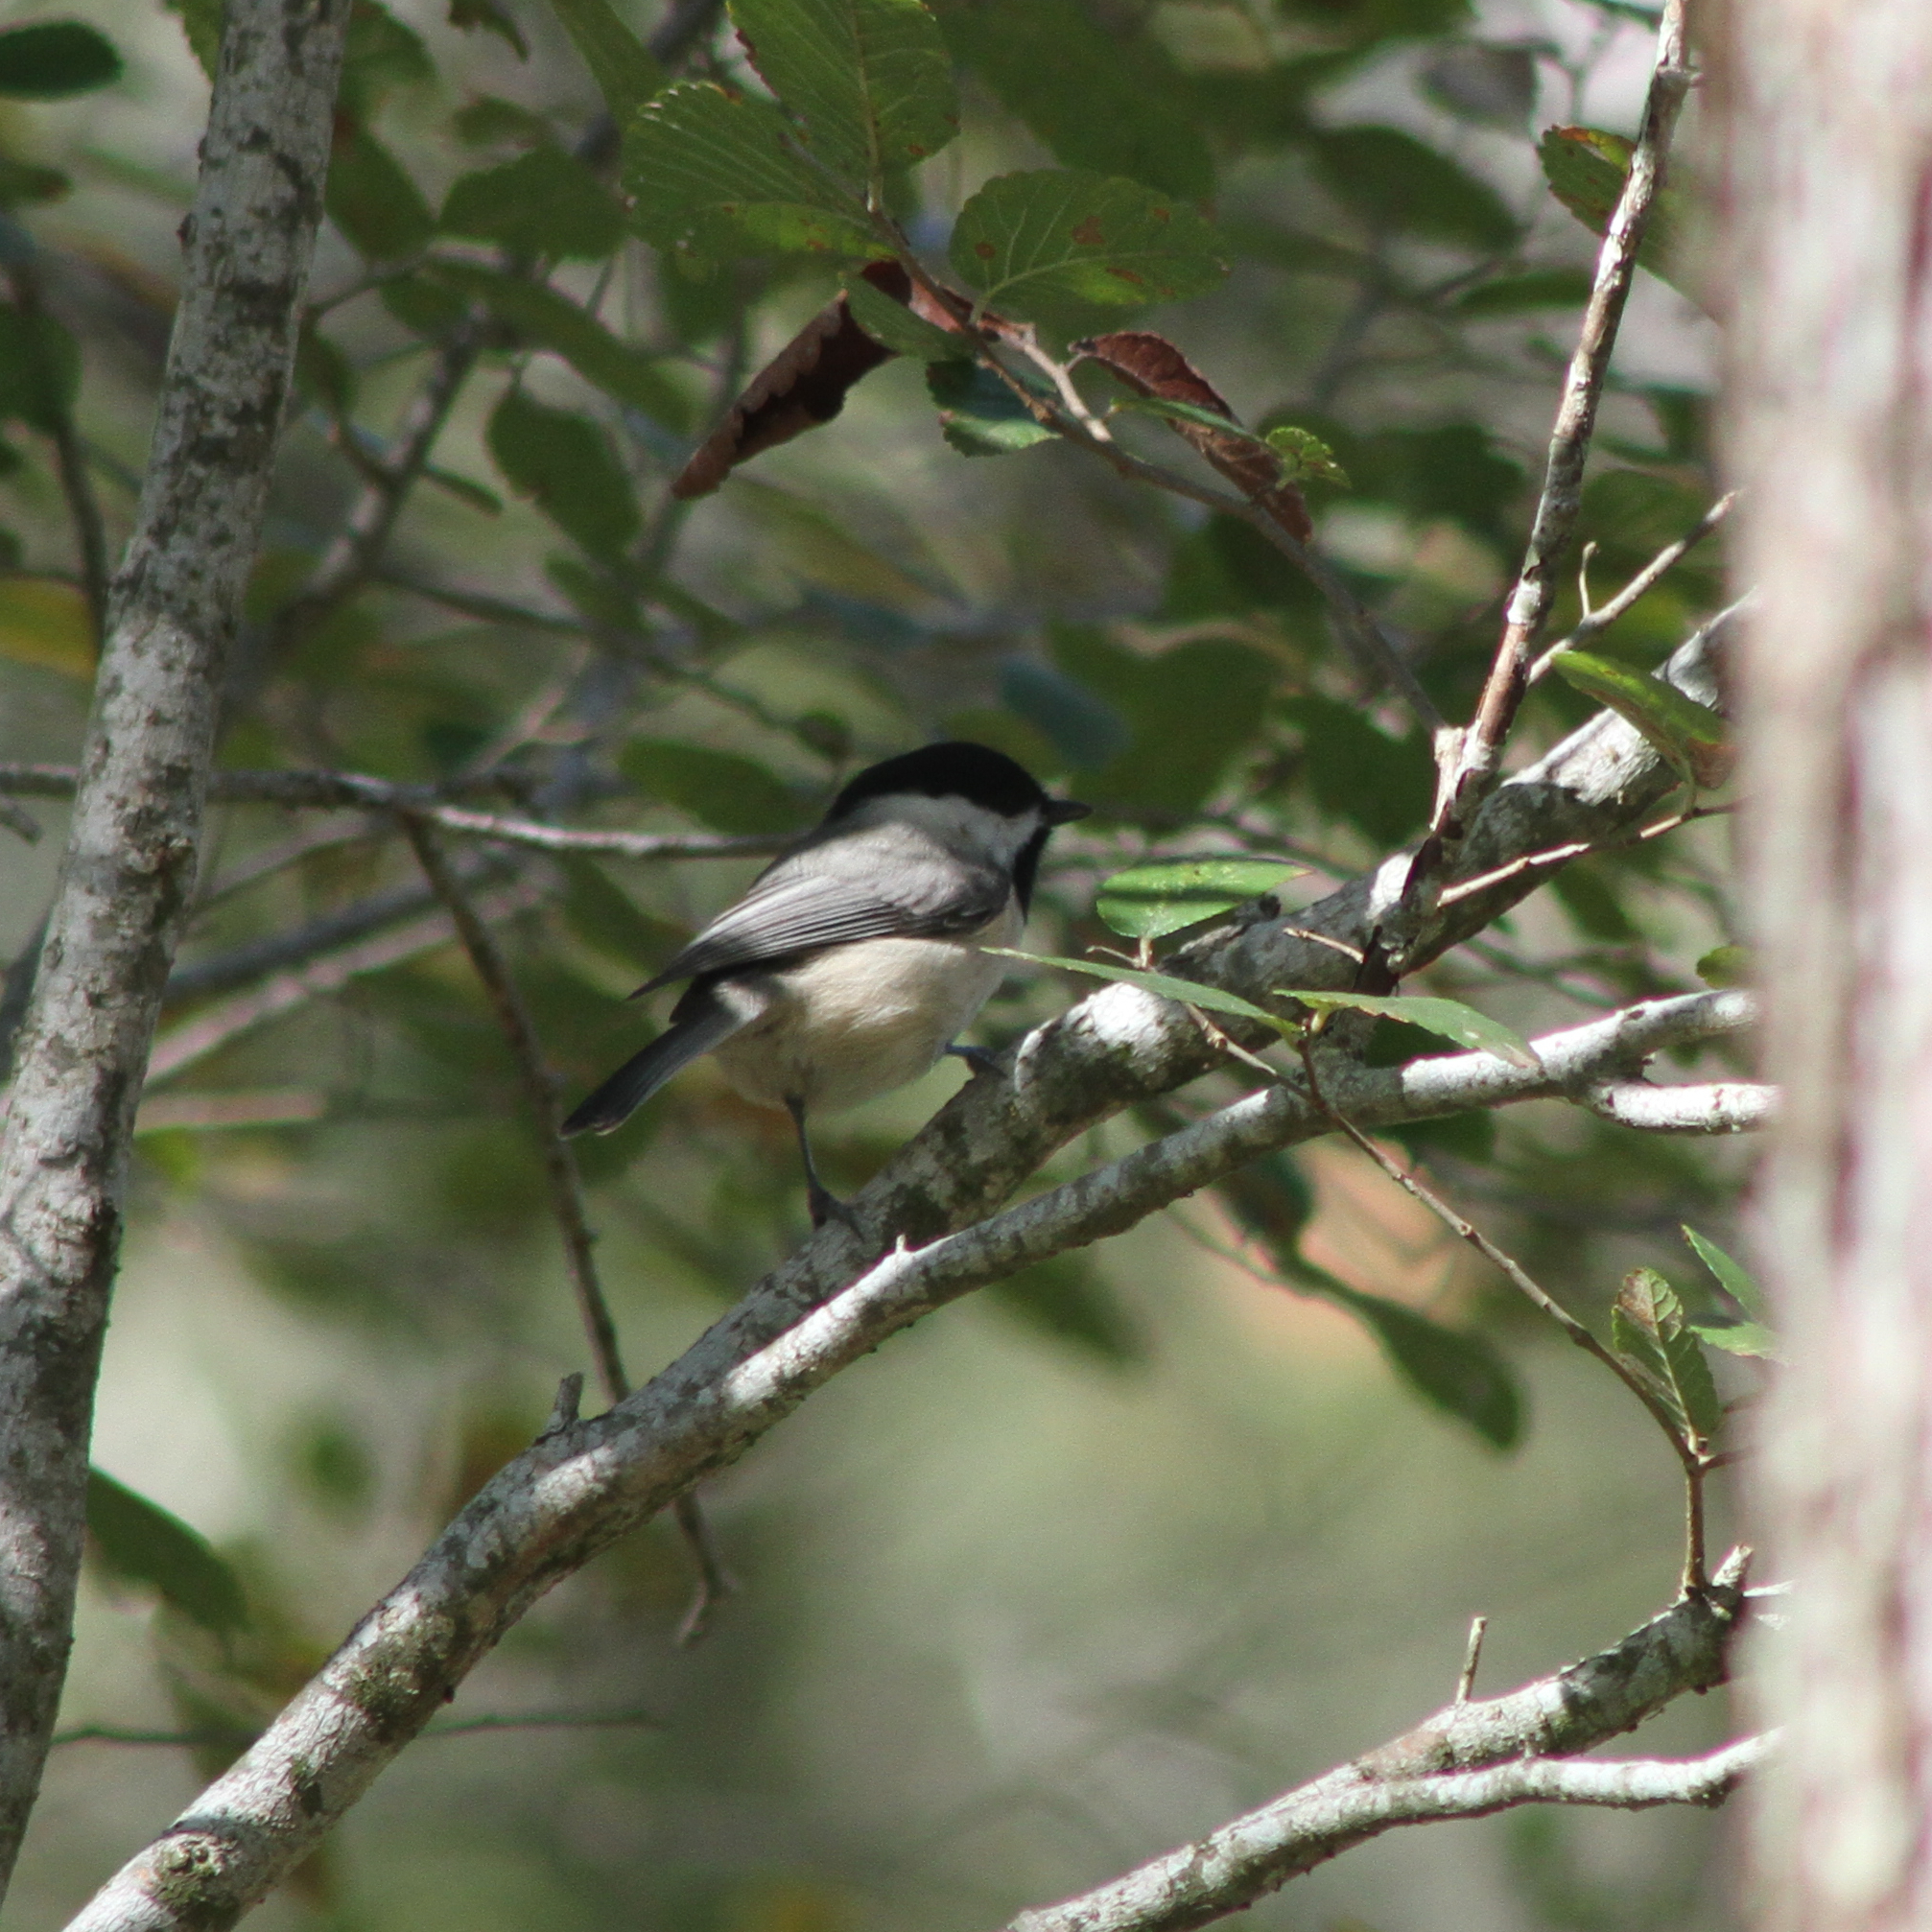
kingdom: Animalia
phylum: Chordata
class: Aves
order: Passeriformes
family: Paridae
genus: Poecile
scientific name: Poecile carolinensis
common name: Carolina chickadee
